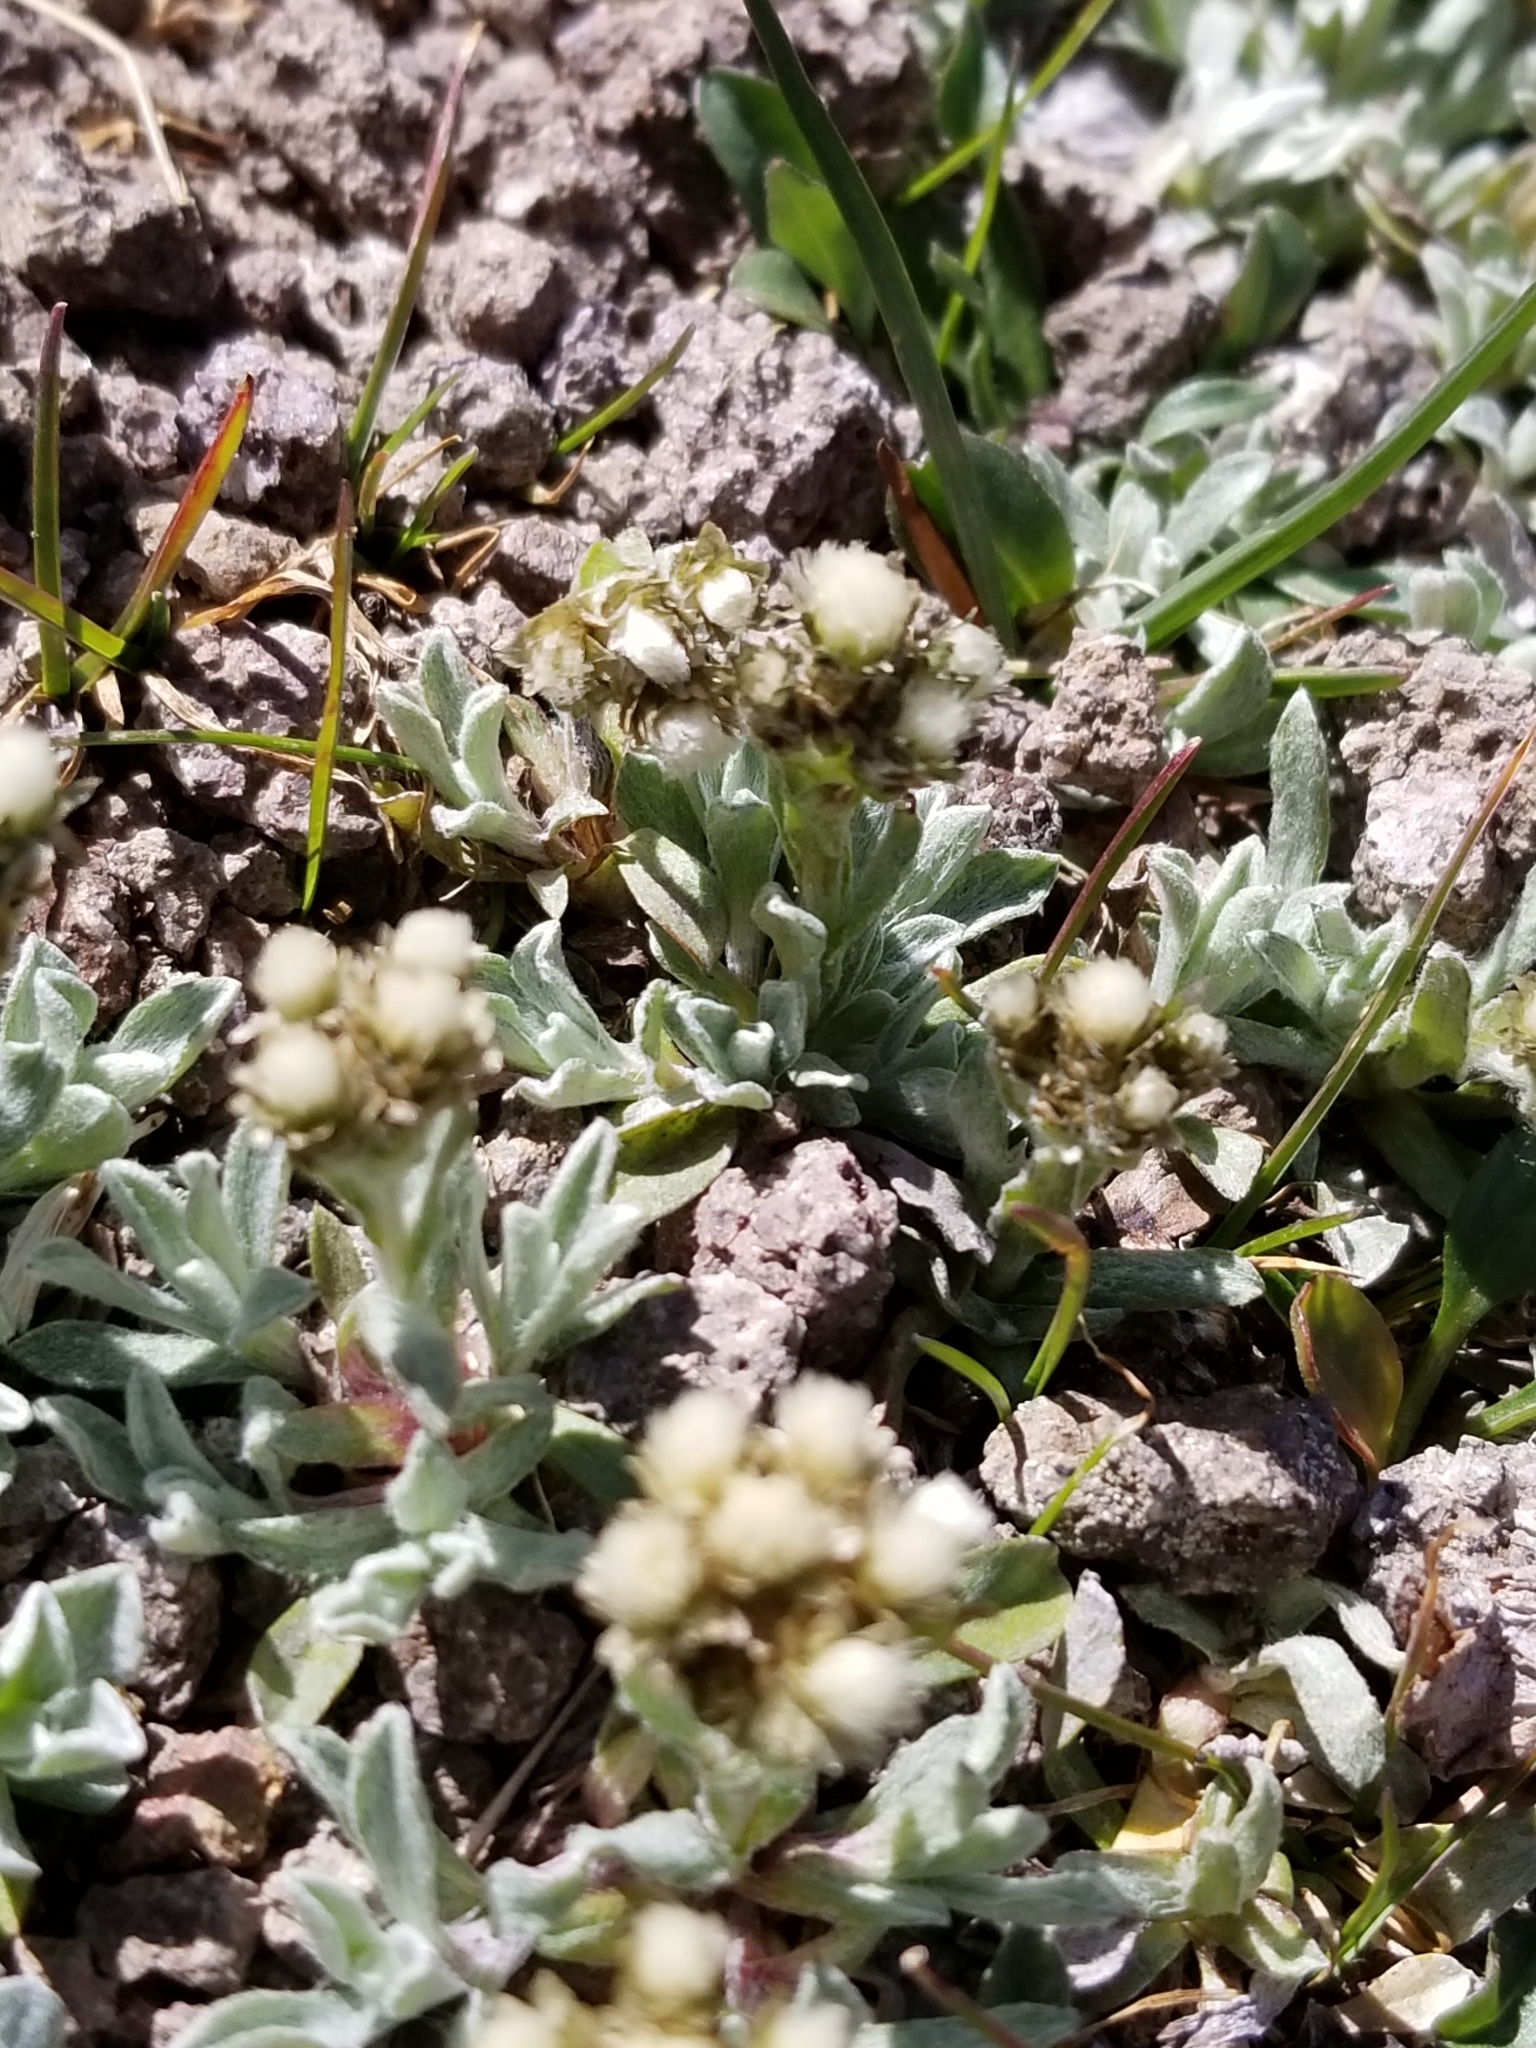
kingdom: Plantae
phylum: Tracheophyta
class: Magnoliopsida
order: Asterales
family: Asteraceae
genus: Antennaria
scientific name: Antennaria media
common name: Rocky mountain pussytoes
